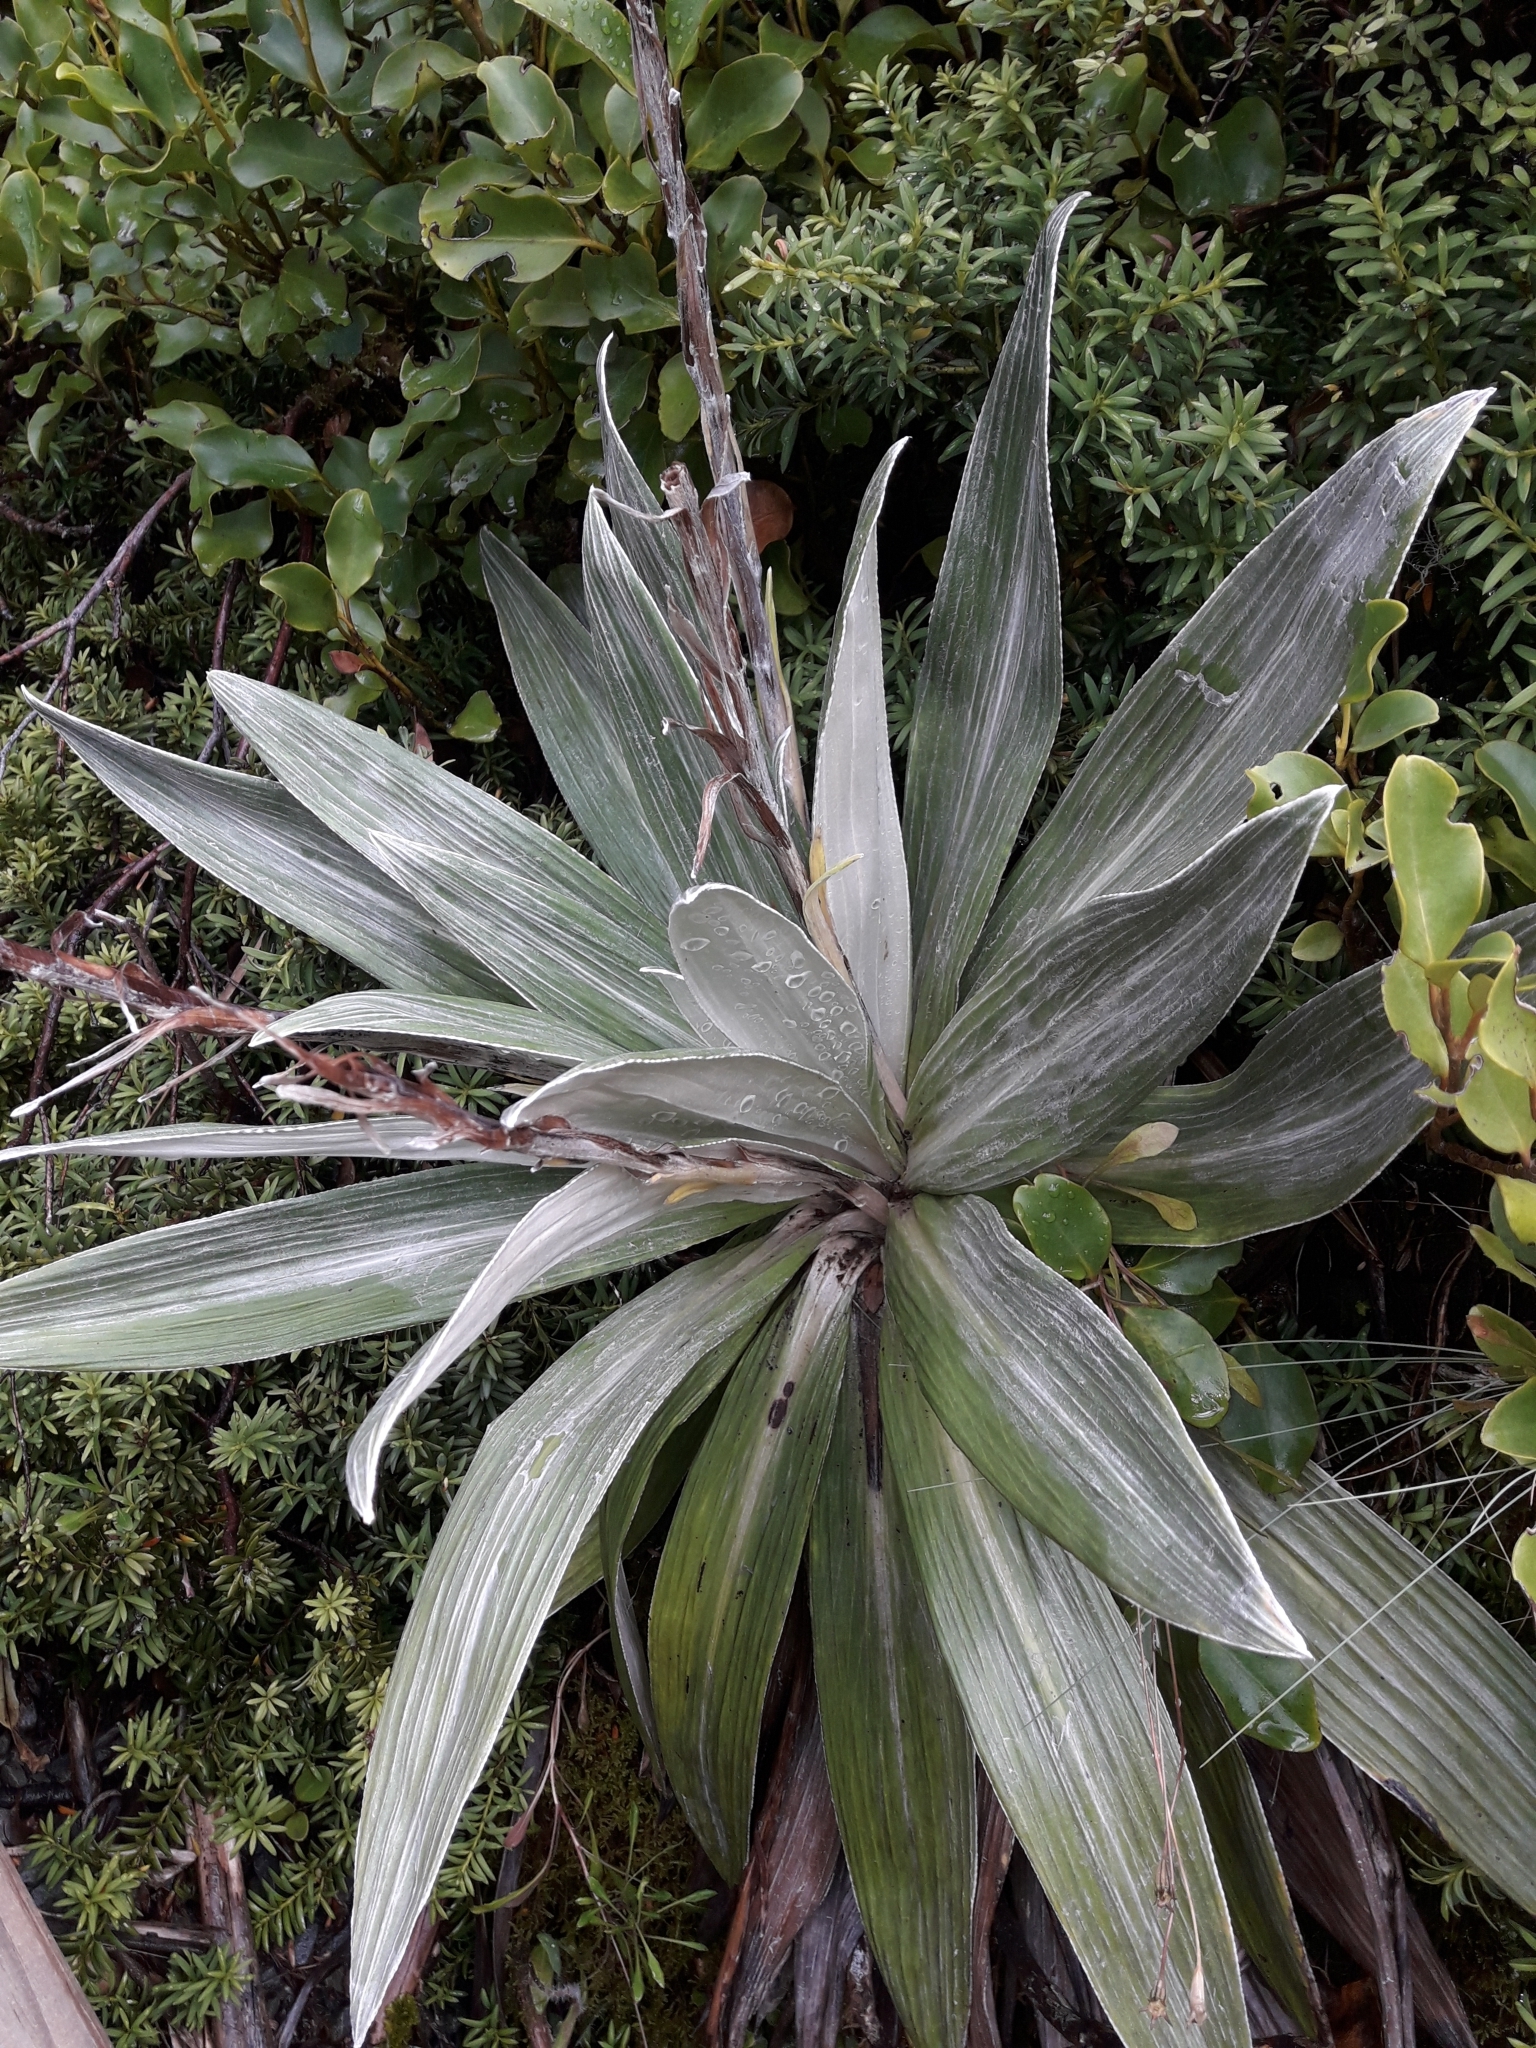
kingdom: Plantae
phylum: Tracheophyta
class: Magnoliopsida
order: Asterales
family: Asteraceae
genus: Celmisia
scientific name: Celmisia semicordata
